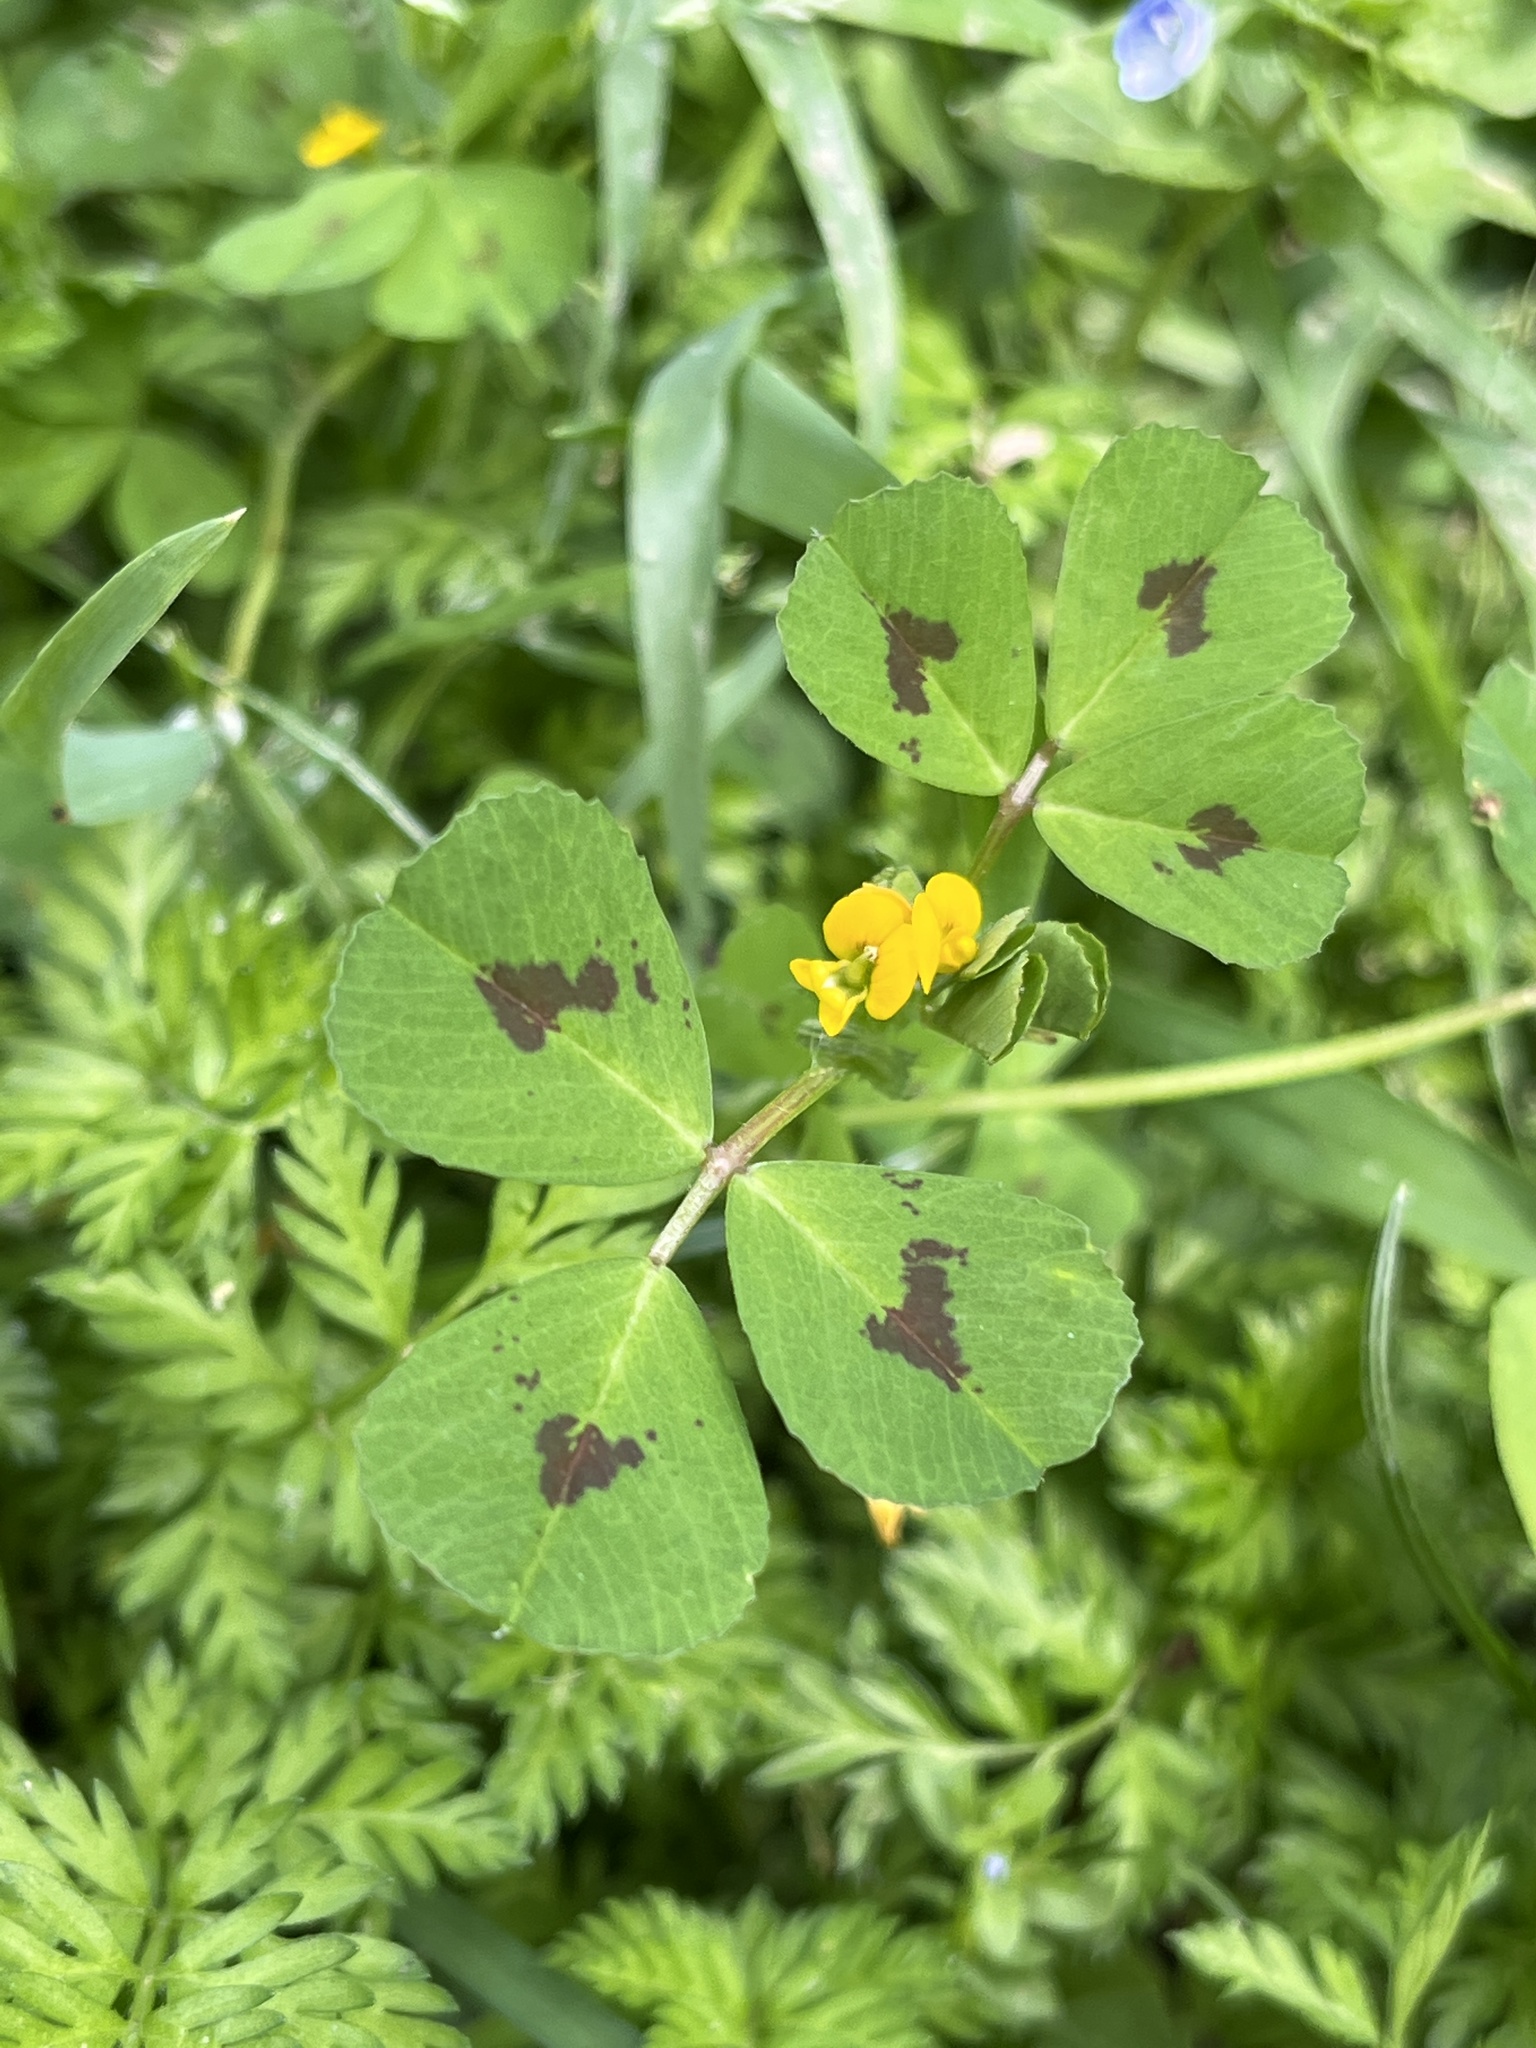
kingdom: Plantae
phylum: Tracheophyta
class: Magnoliopsida
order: Fabales
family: Fabaceae
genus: Medicago
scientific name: Medicago arabica
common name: Spotted medick
